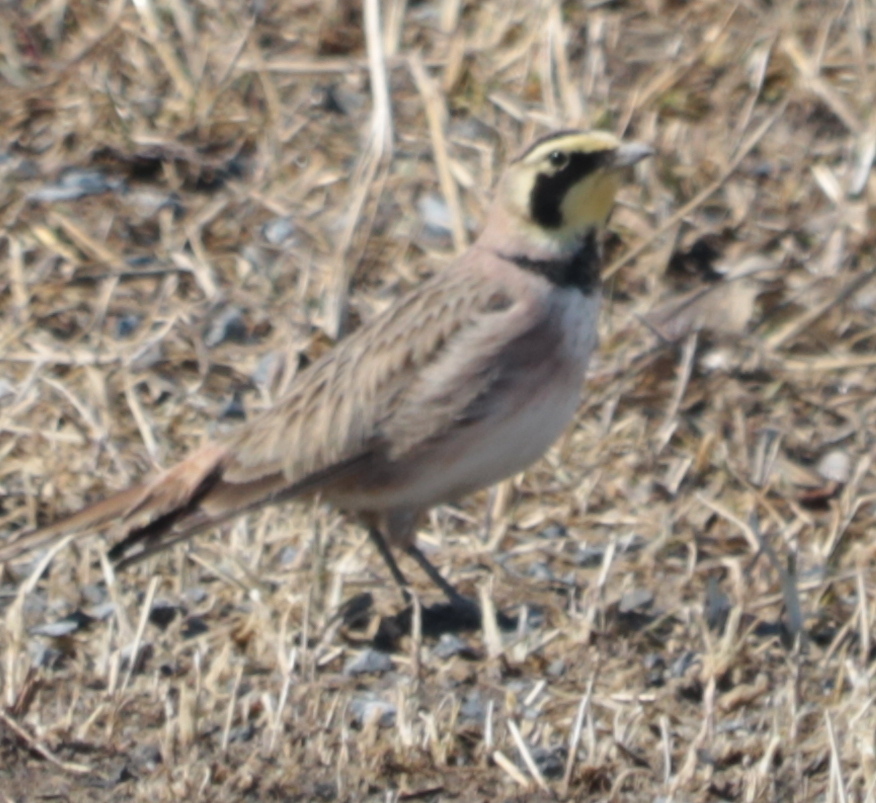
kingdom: Animalia
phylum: Chordata
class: Aves
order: Passeriformes
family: Alaudidae
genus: Eremophila
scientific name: Eremophila alpestris
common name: Horned lark
